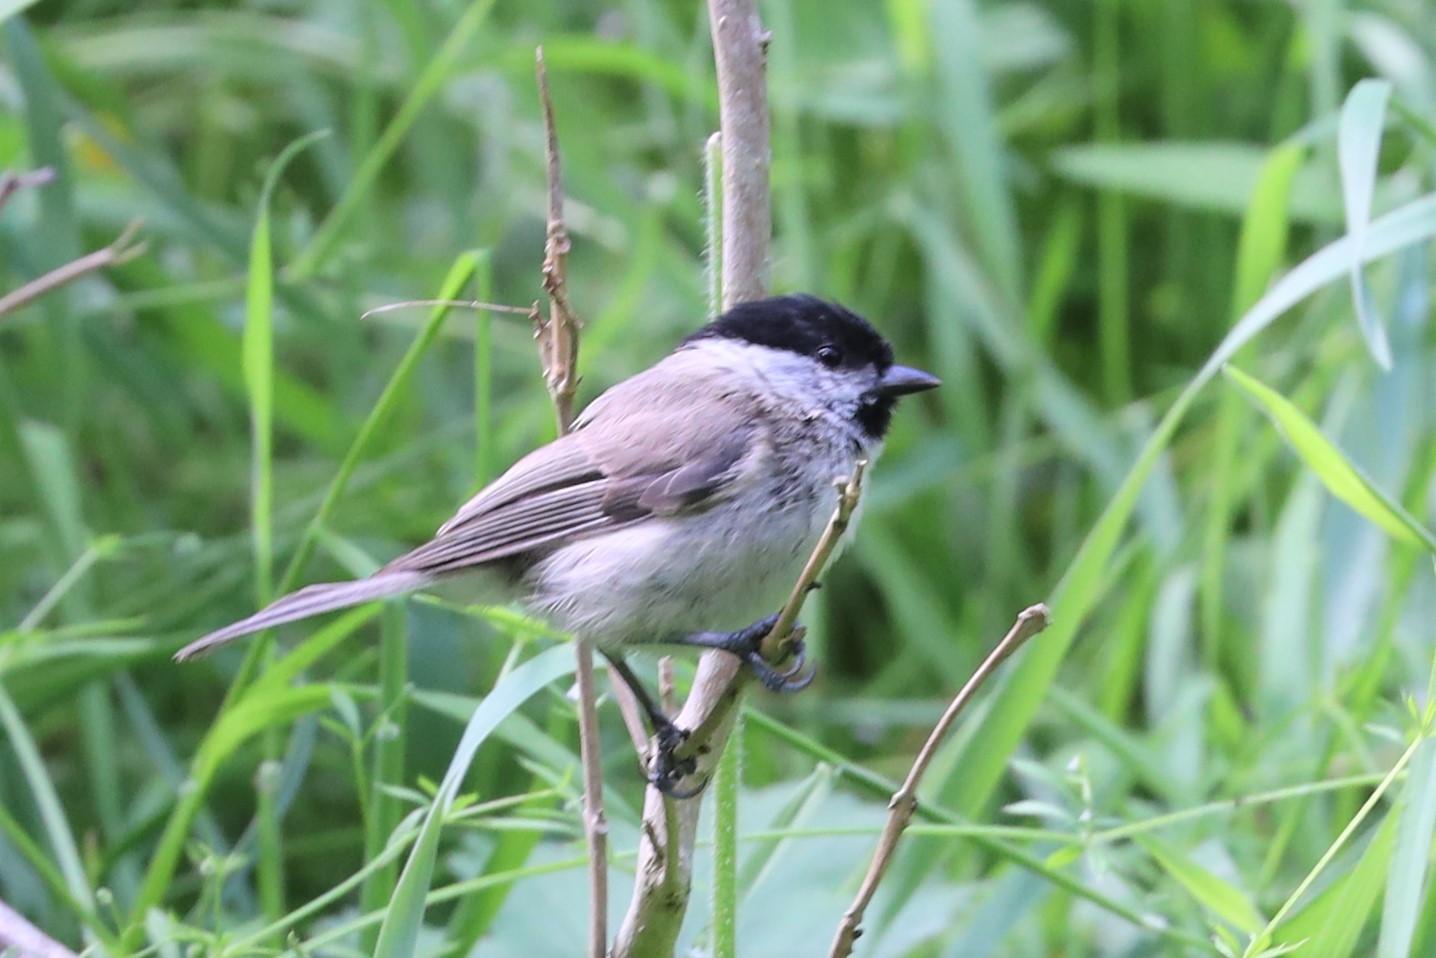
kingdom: Animalia
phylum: Chordata
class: Aves
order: Passeriformes
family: Paridae
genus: Poecile
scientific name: Poecile montanus
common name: Willow tit
